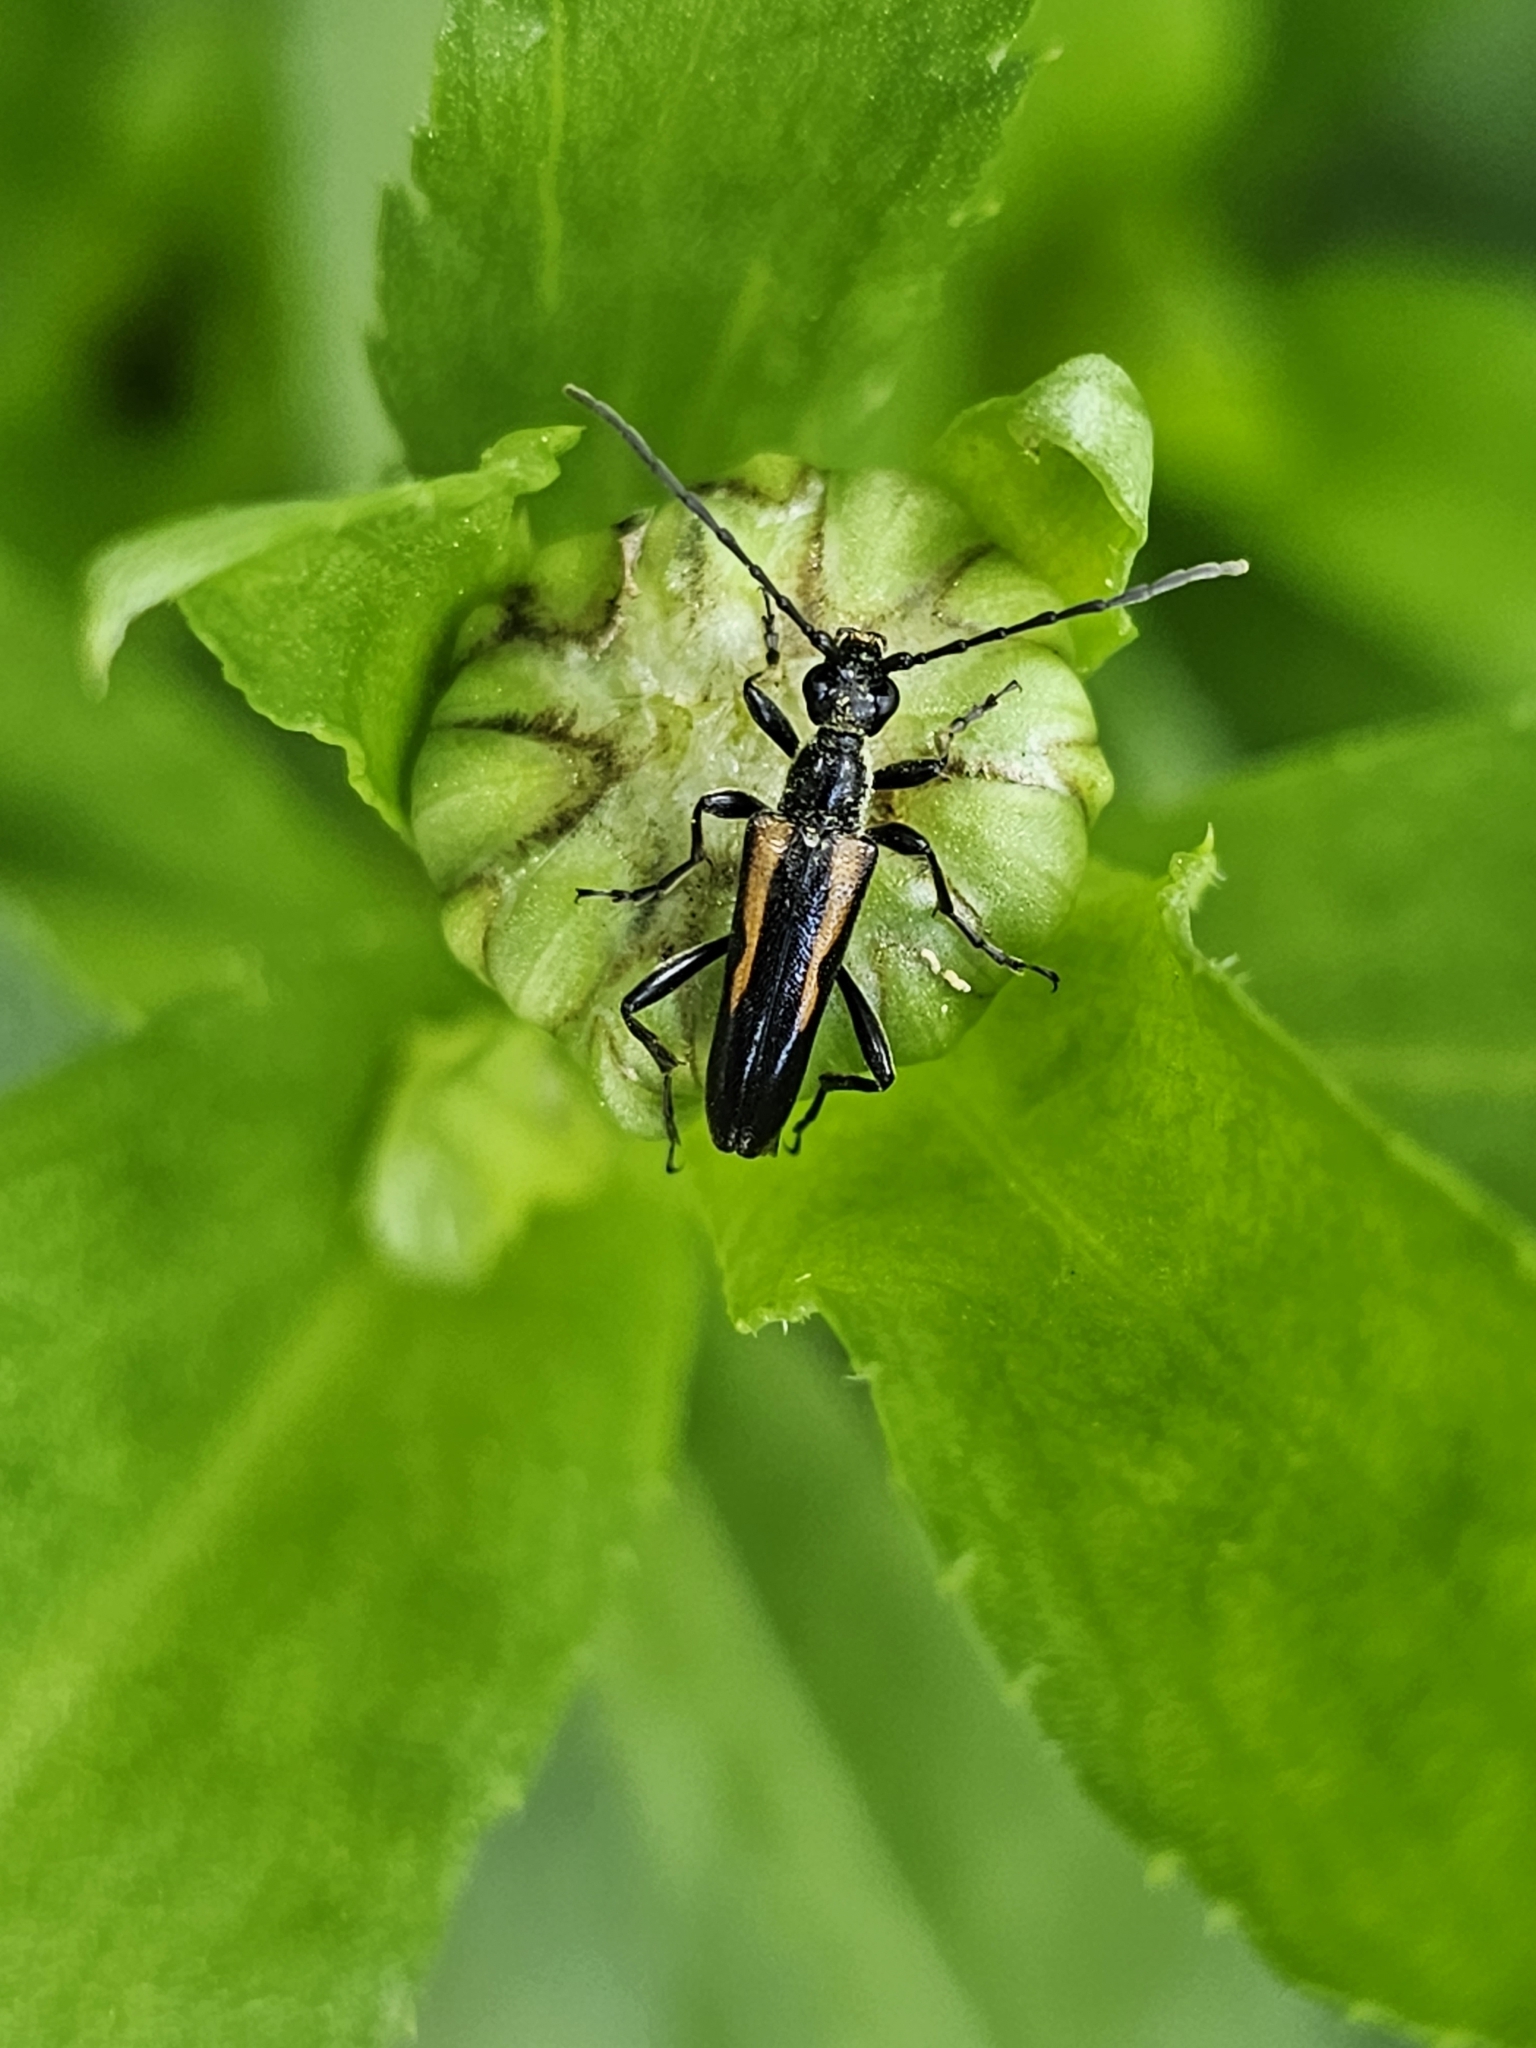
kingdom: Animalia
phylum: Arthropoda
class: Insecta
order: Coleoptera
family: Cerambycidae
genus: Strangalepta
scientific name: Strangalepta abbreviata
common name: Strangalepta flower longhorn beetle
